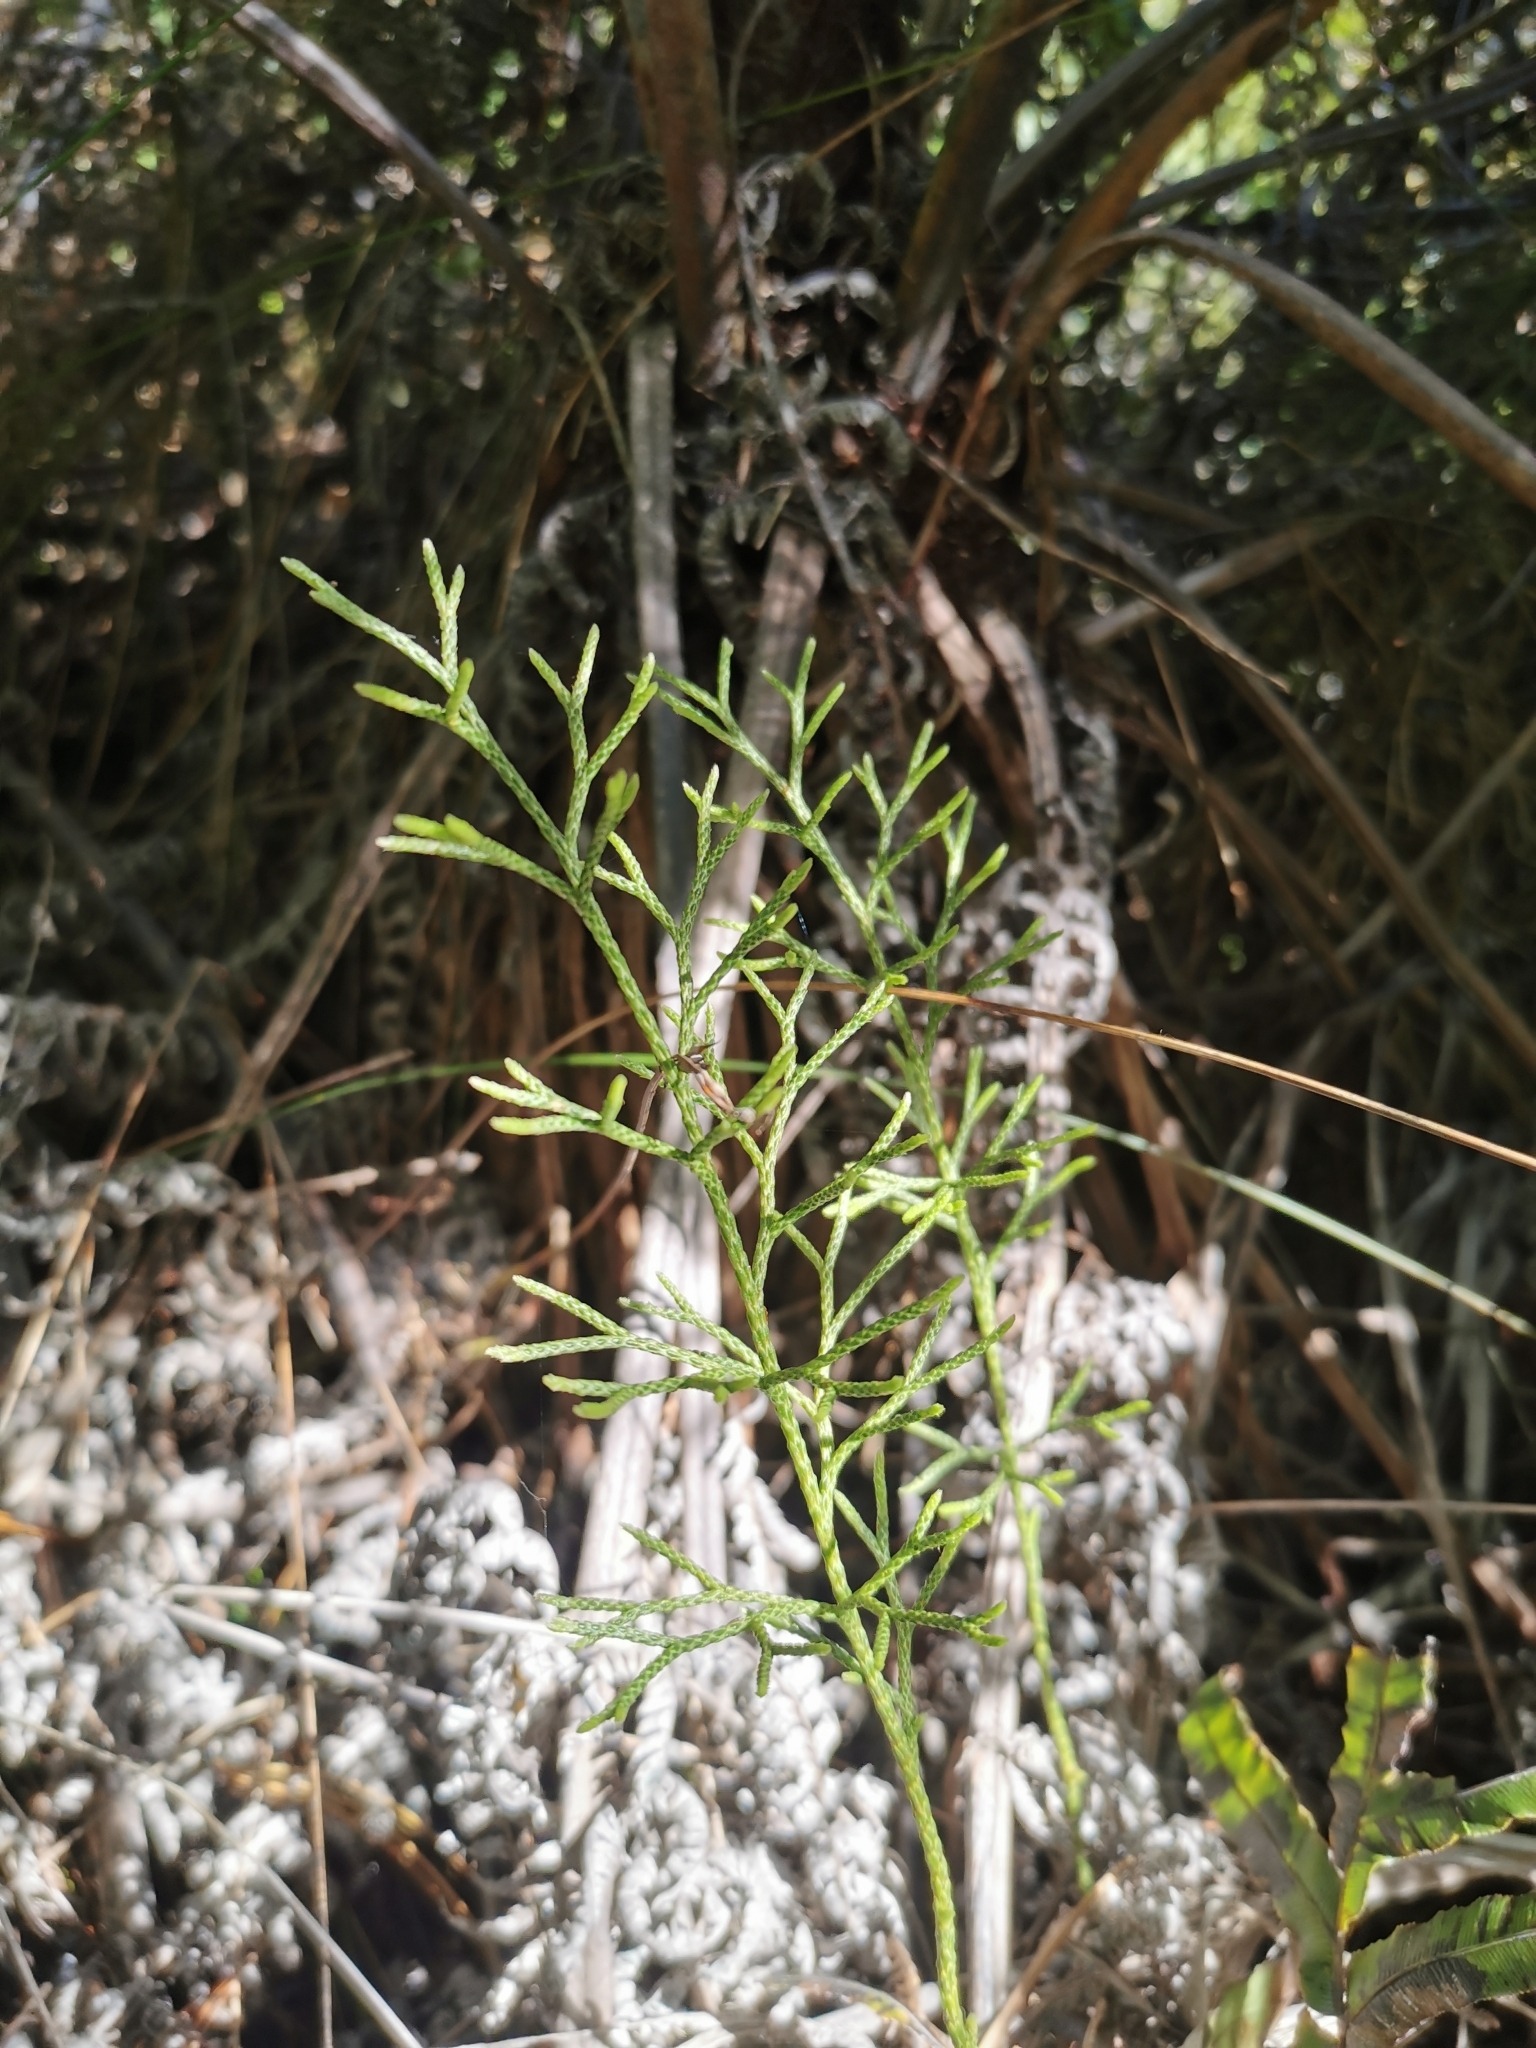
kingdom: Plantae
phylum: Tracheophyta
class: Lycopodiopsida
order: Lycopodiales
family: Lycopodiaceae
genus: Pseudolycopodium
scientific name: Pseudolycopodium densum
